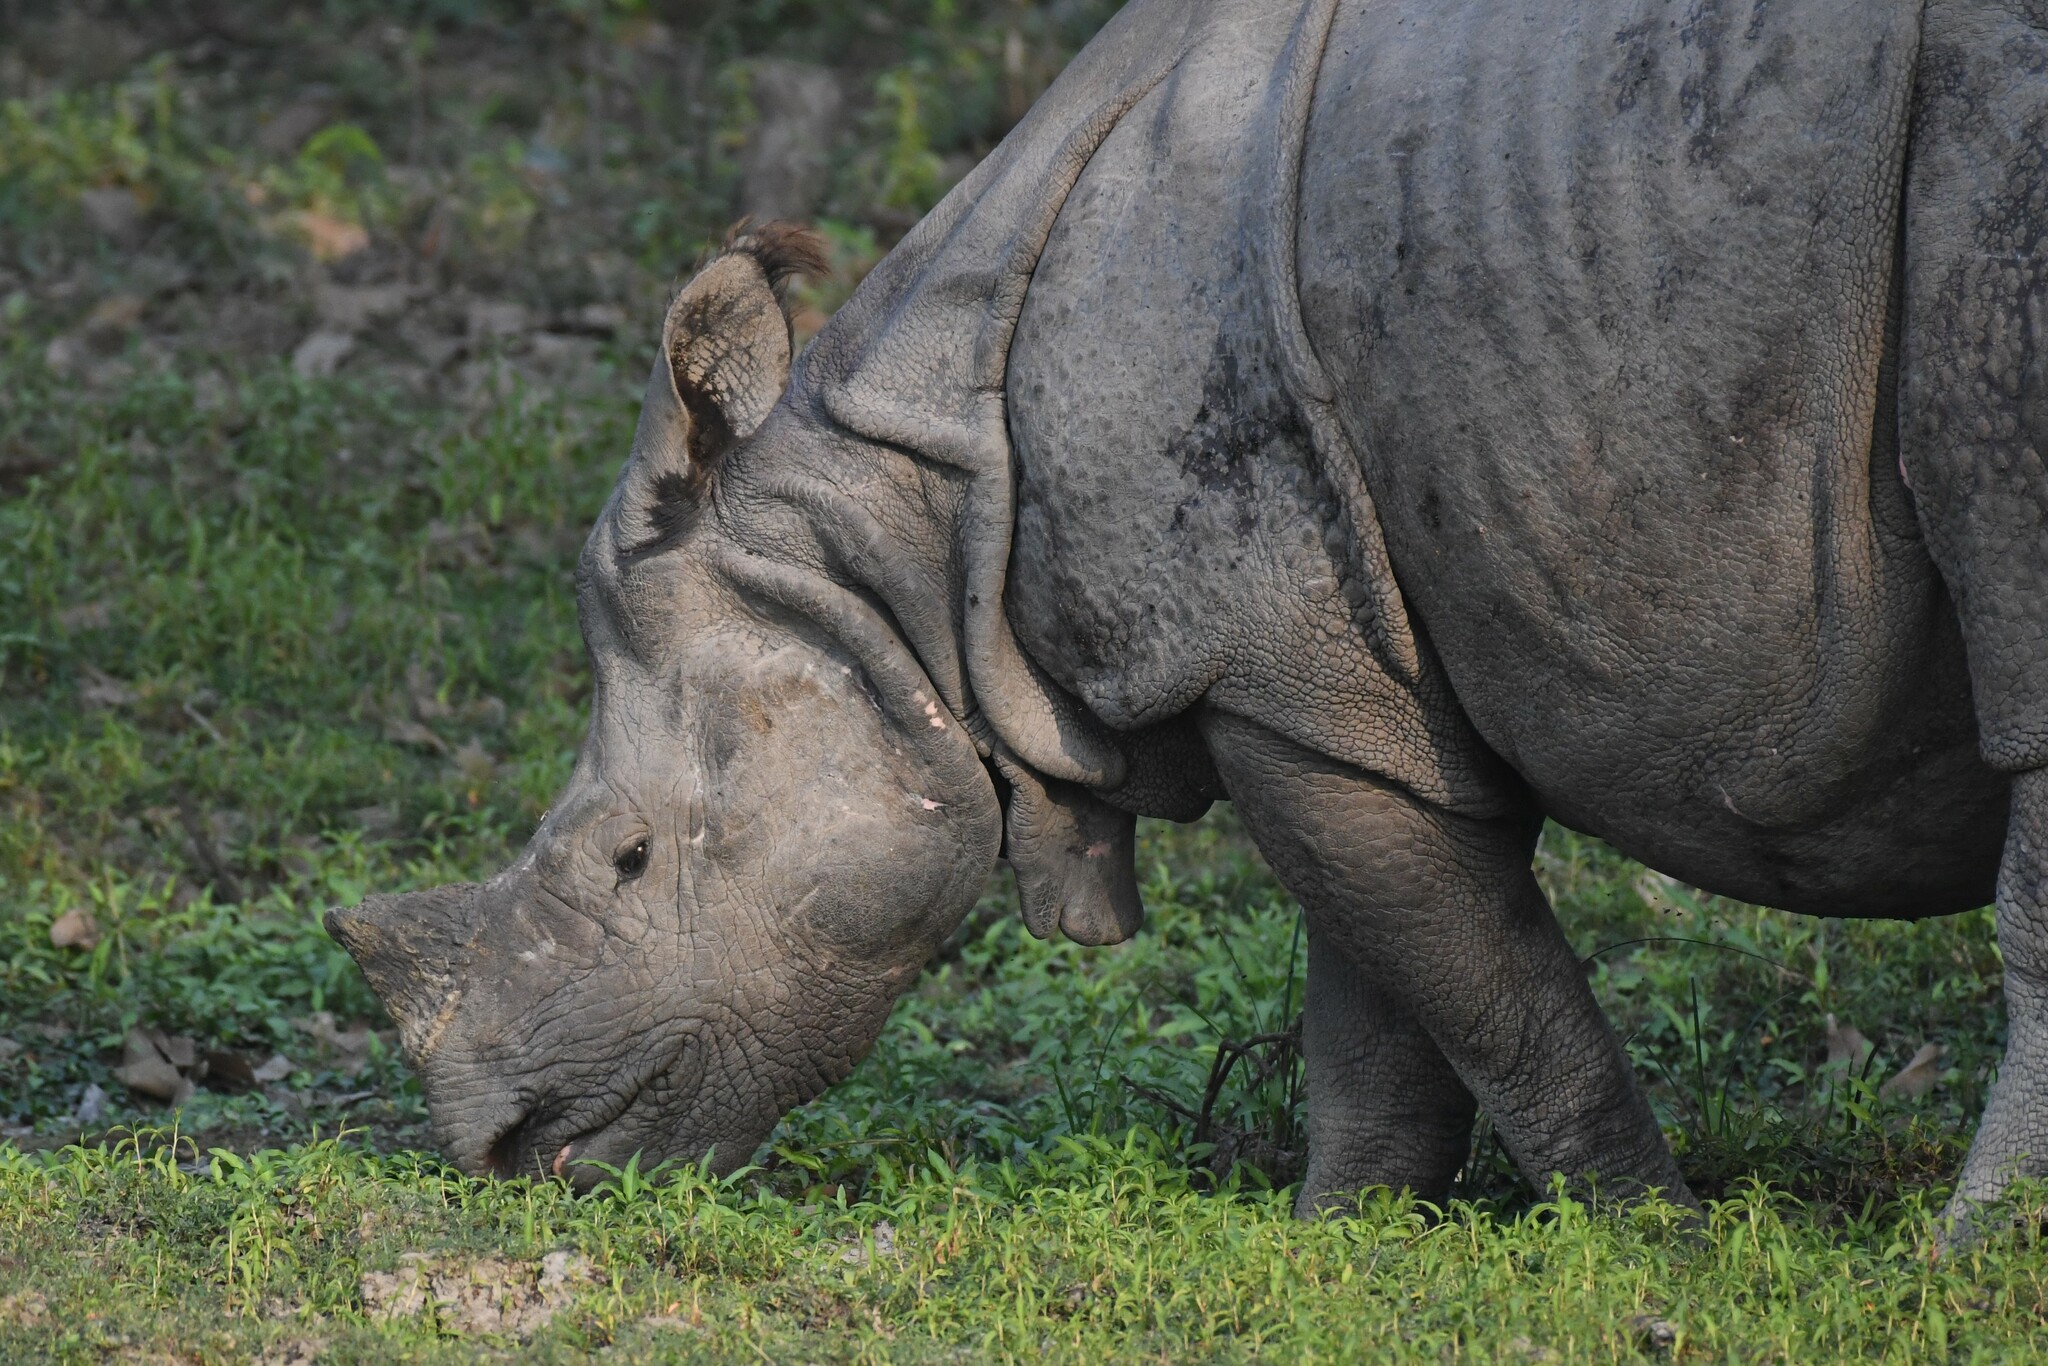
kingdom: Animalia
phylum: Chordata
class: Mammalia
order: Perissodactyla
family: Rhinocerotidae
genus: Rhinoceros
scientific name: Rhinoceros unicornis
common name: Indian rhinoceros
